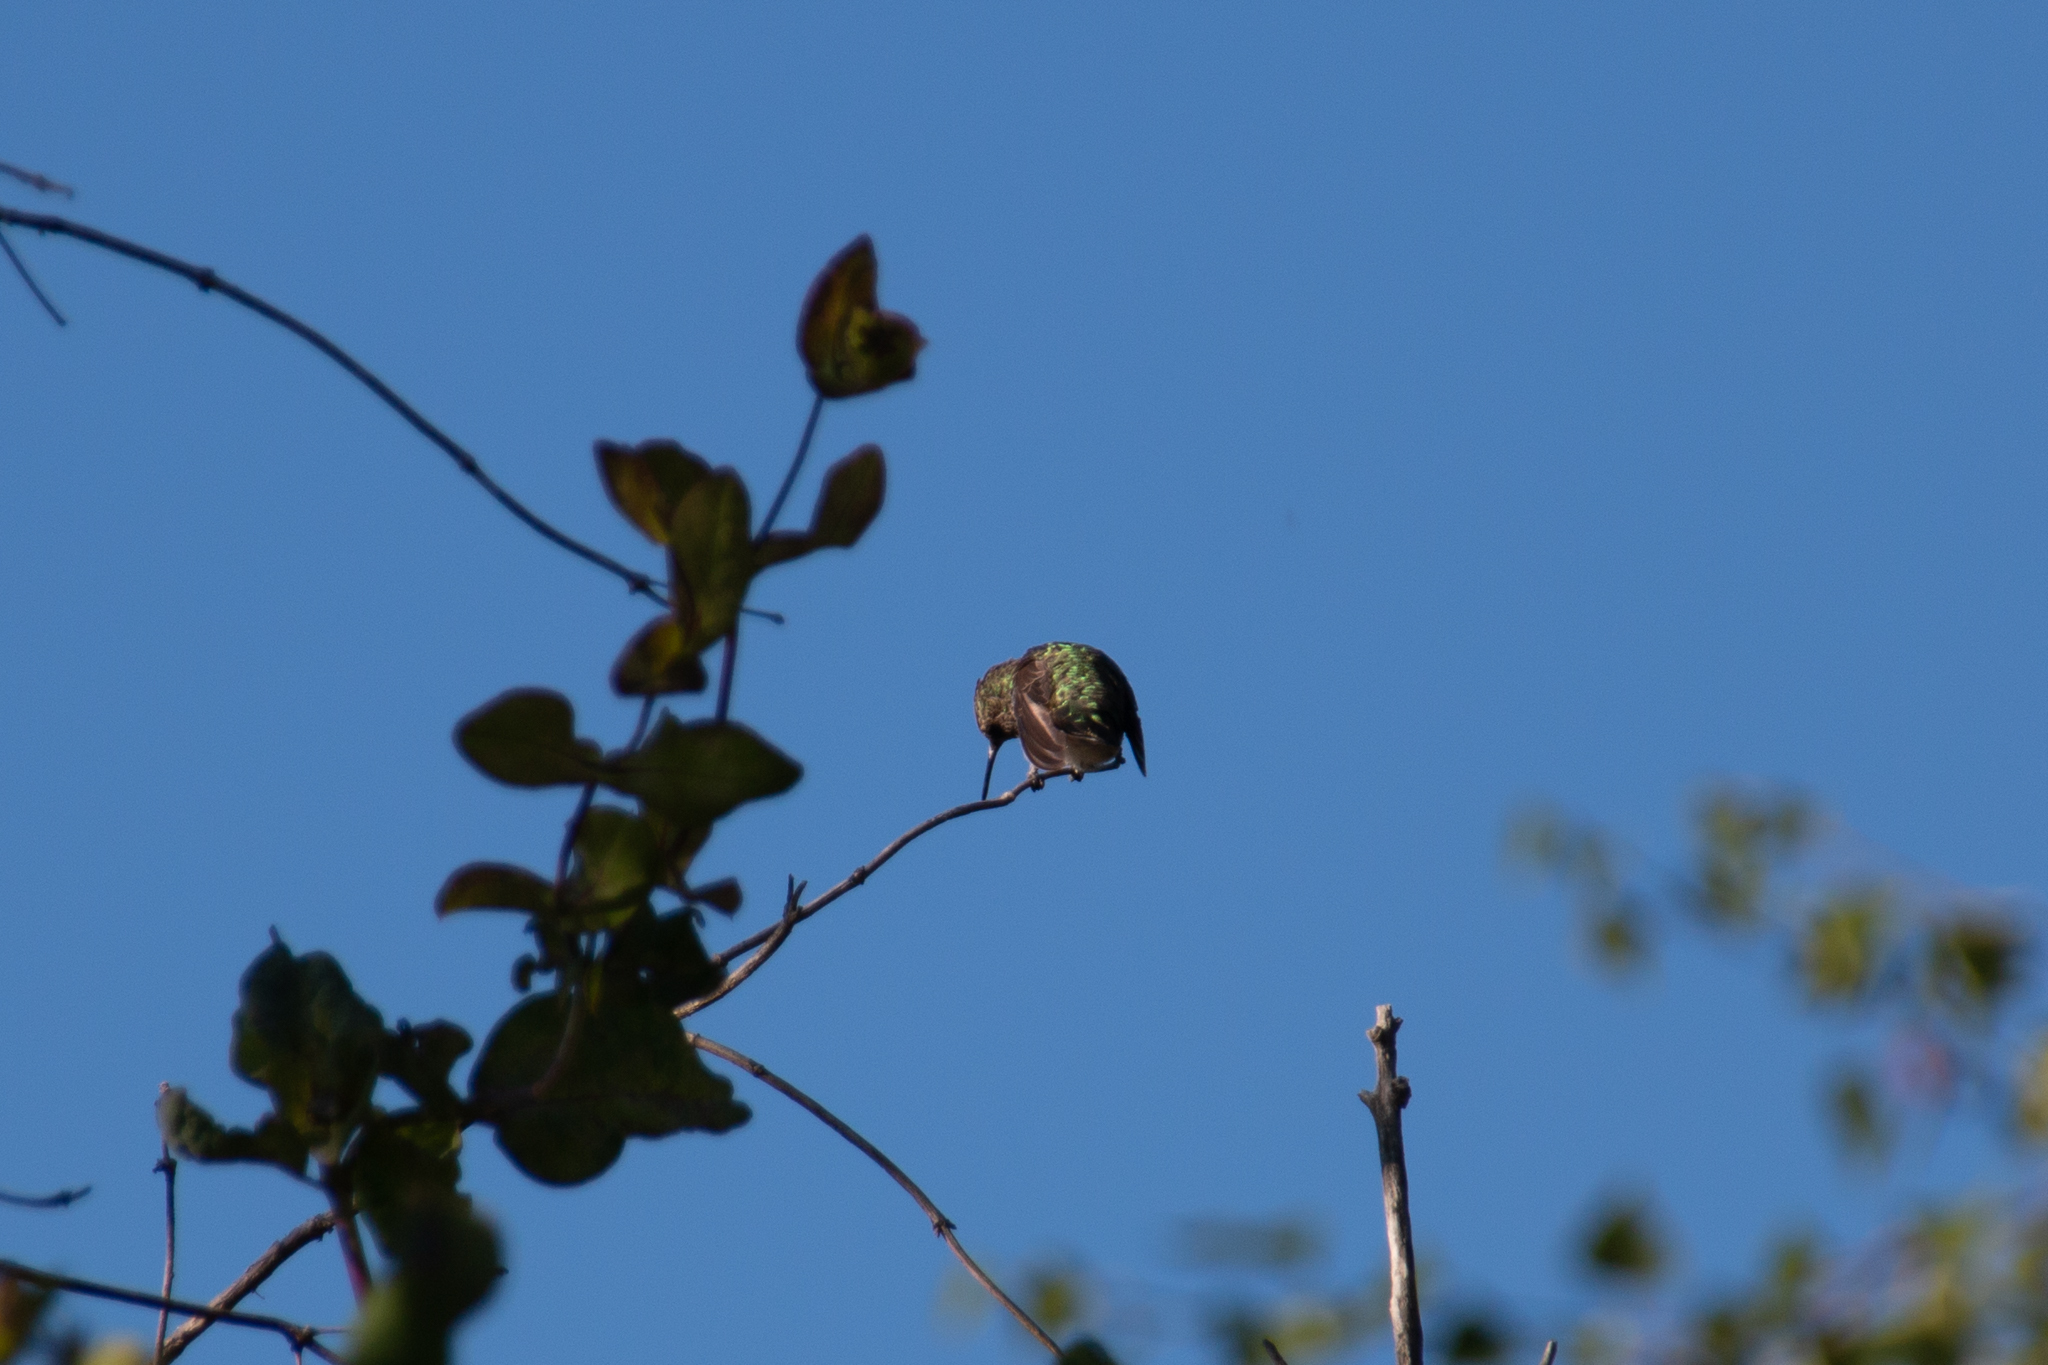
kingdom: Animalia
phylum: Chordata
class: Aves
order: Apodiformes
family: Trochilidae
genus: Calypte
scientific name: Calypte anna
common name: Anna's hummingbird
